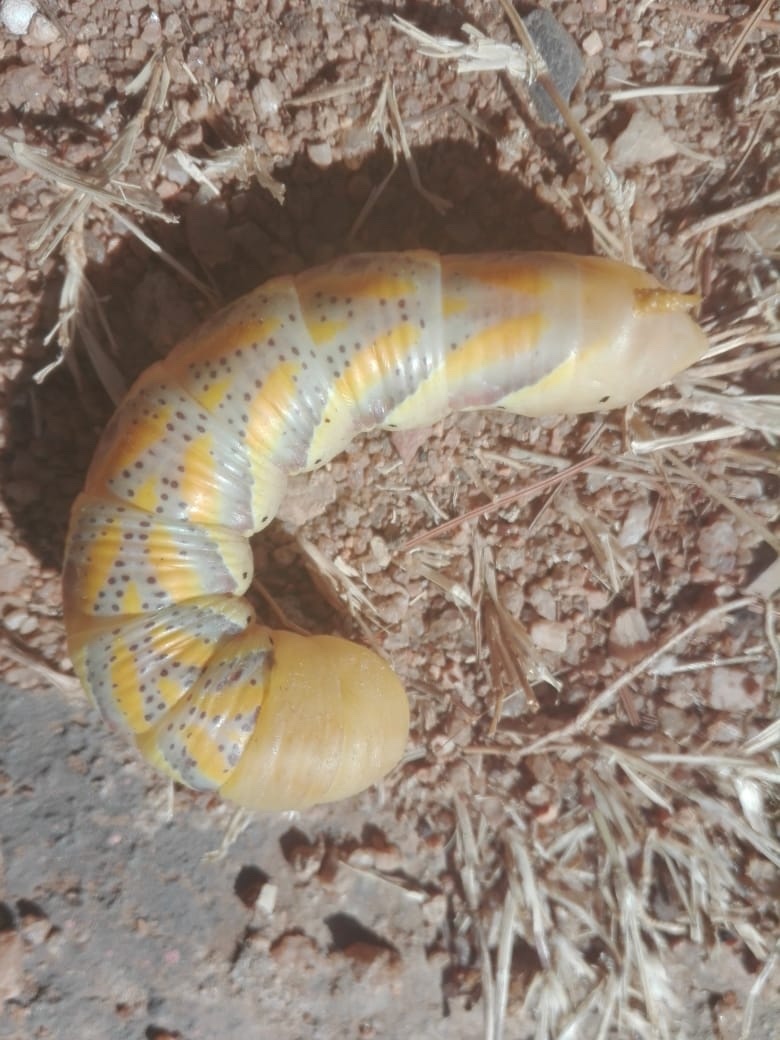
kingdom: Animalia
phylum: Arthropoda
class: Insecta
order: Lepidoptera
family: Sphingidae
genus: Acherontia
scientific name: Acherontia atropos
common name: Death's-head hawk moth
